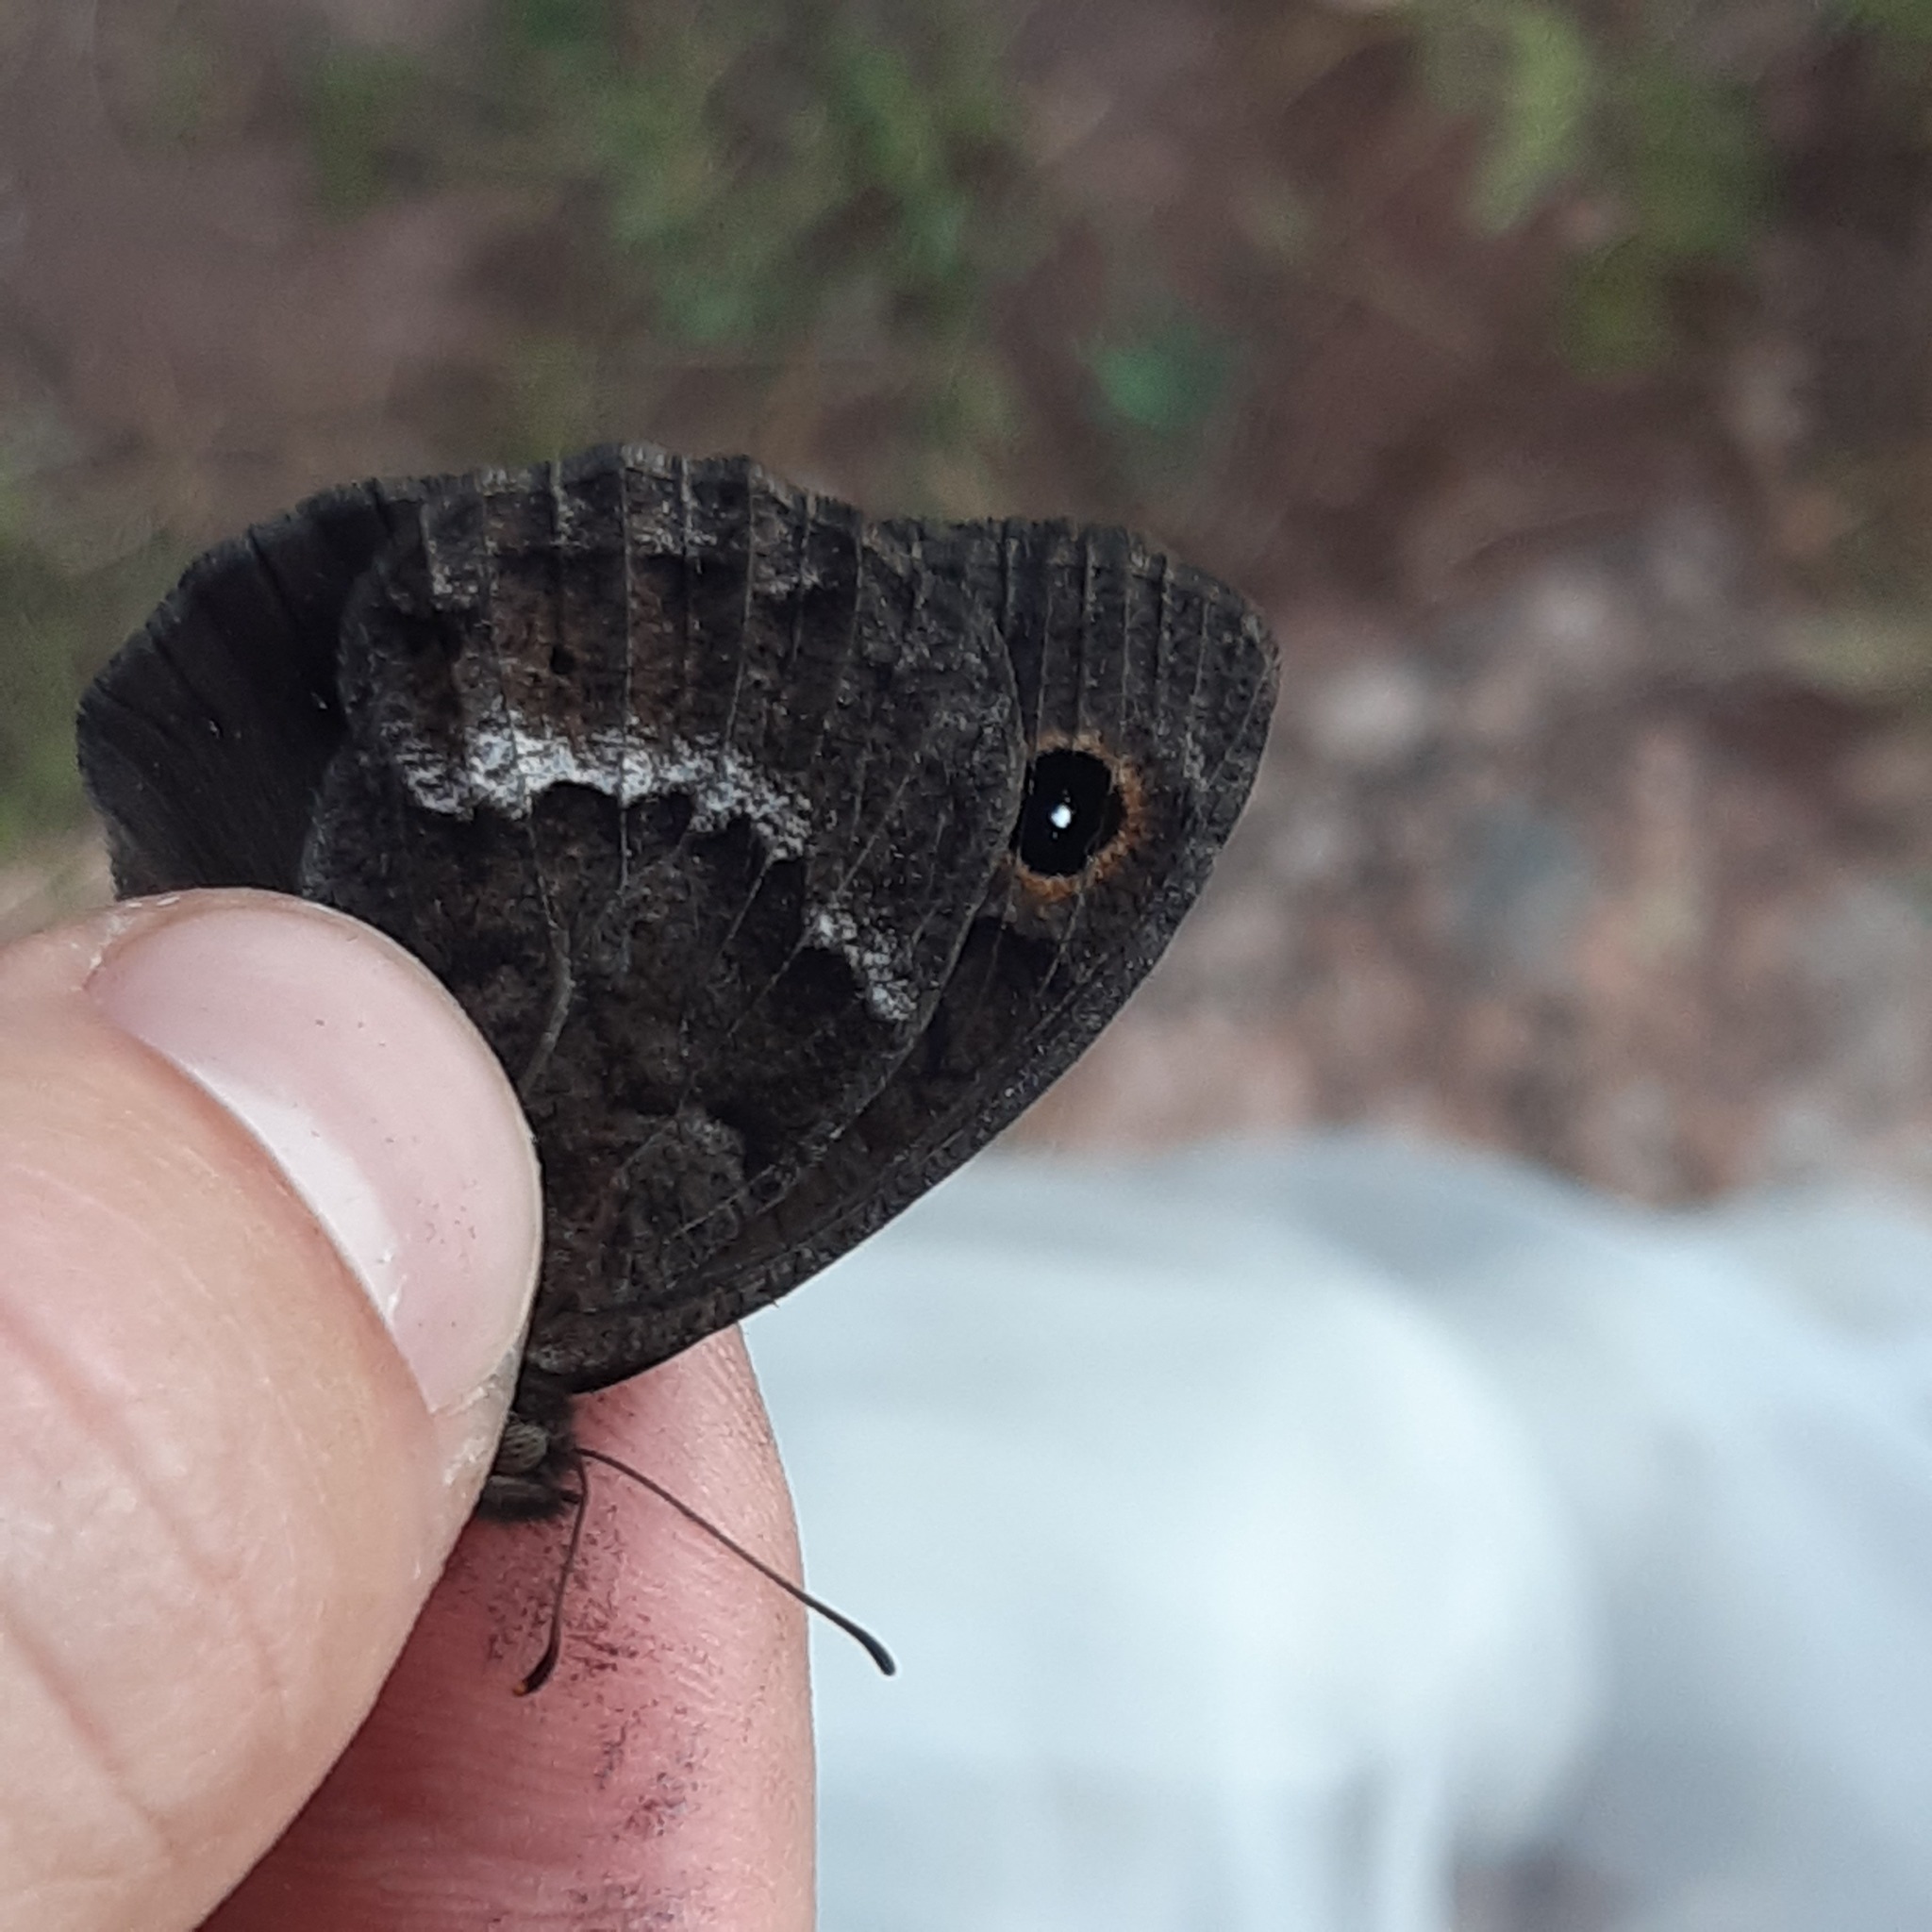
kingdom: Animalia
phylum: Arthropoda
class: Insecta
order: Lepidoptera
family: Nymphalidae
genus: Satyrus
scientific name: Satyrus ferula
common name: Great sooty satyr
